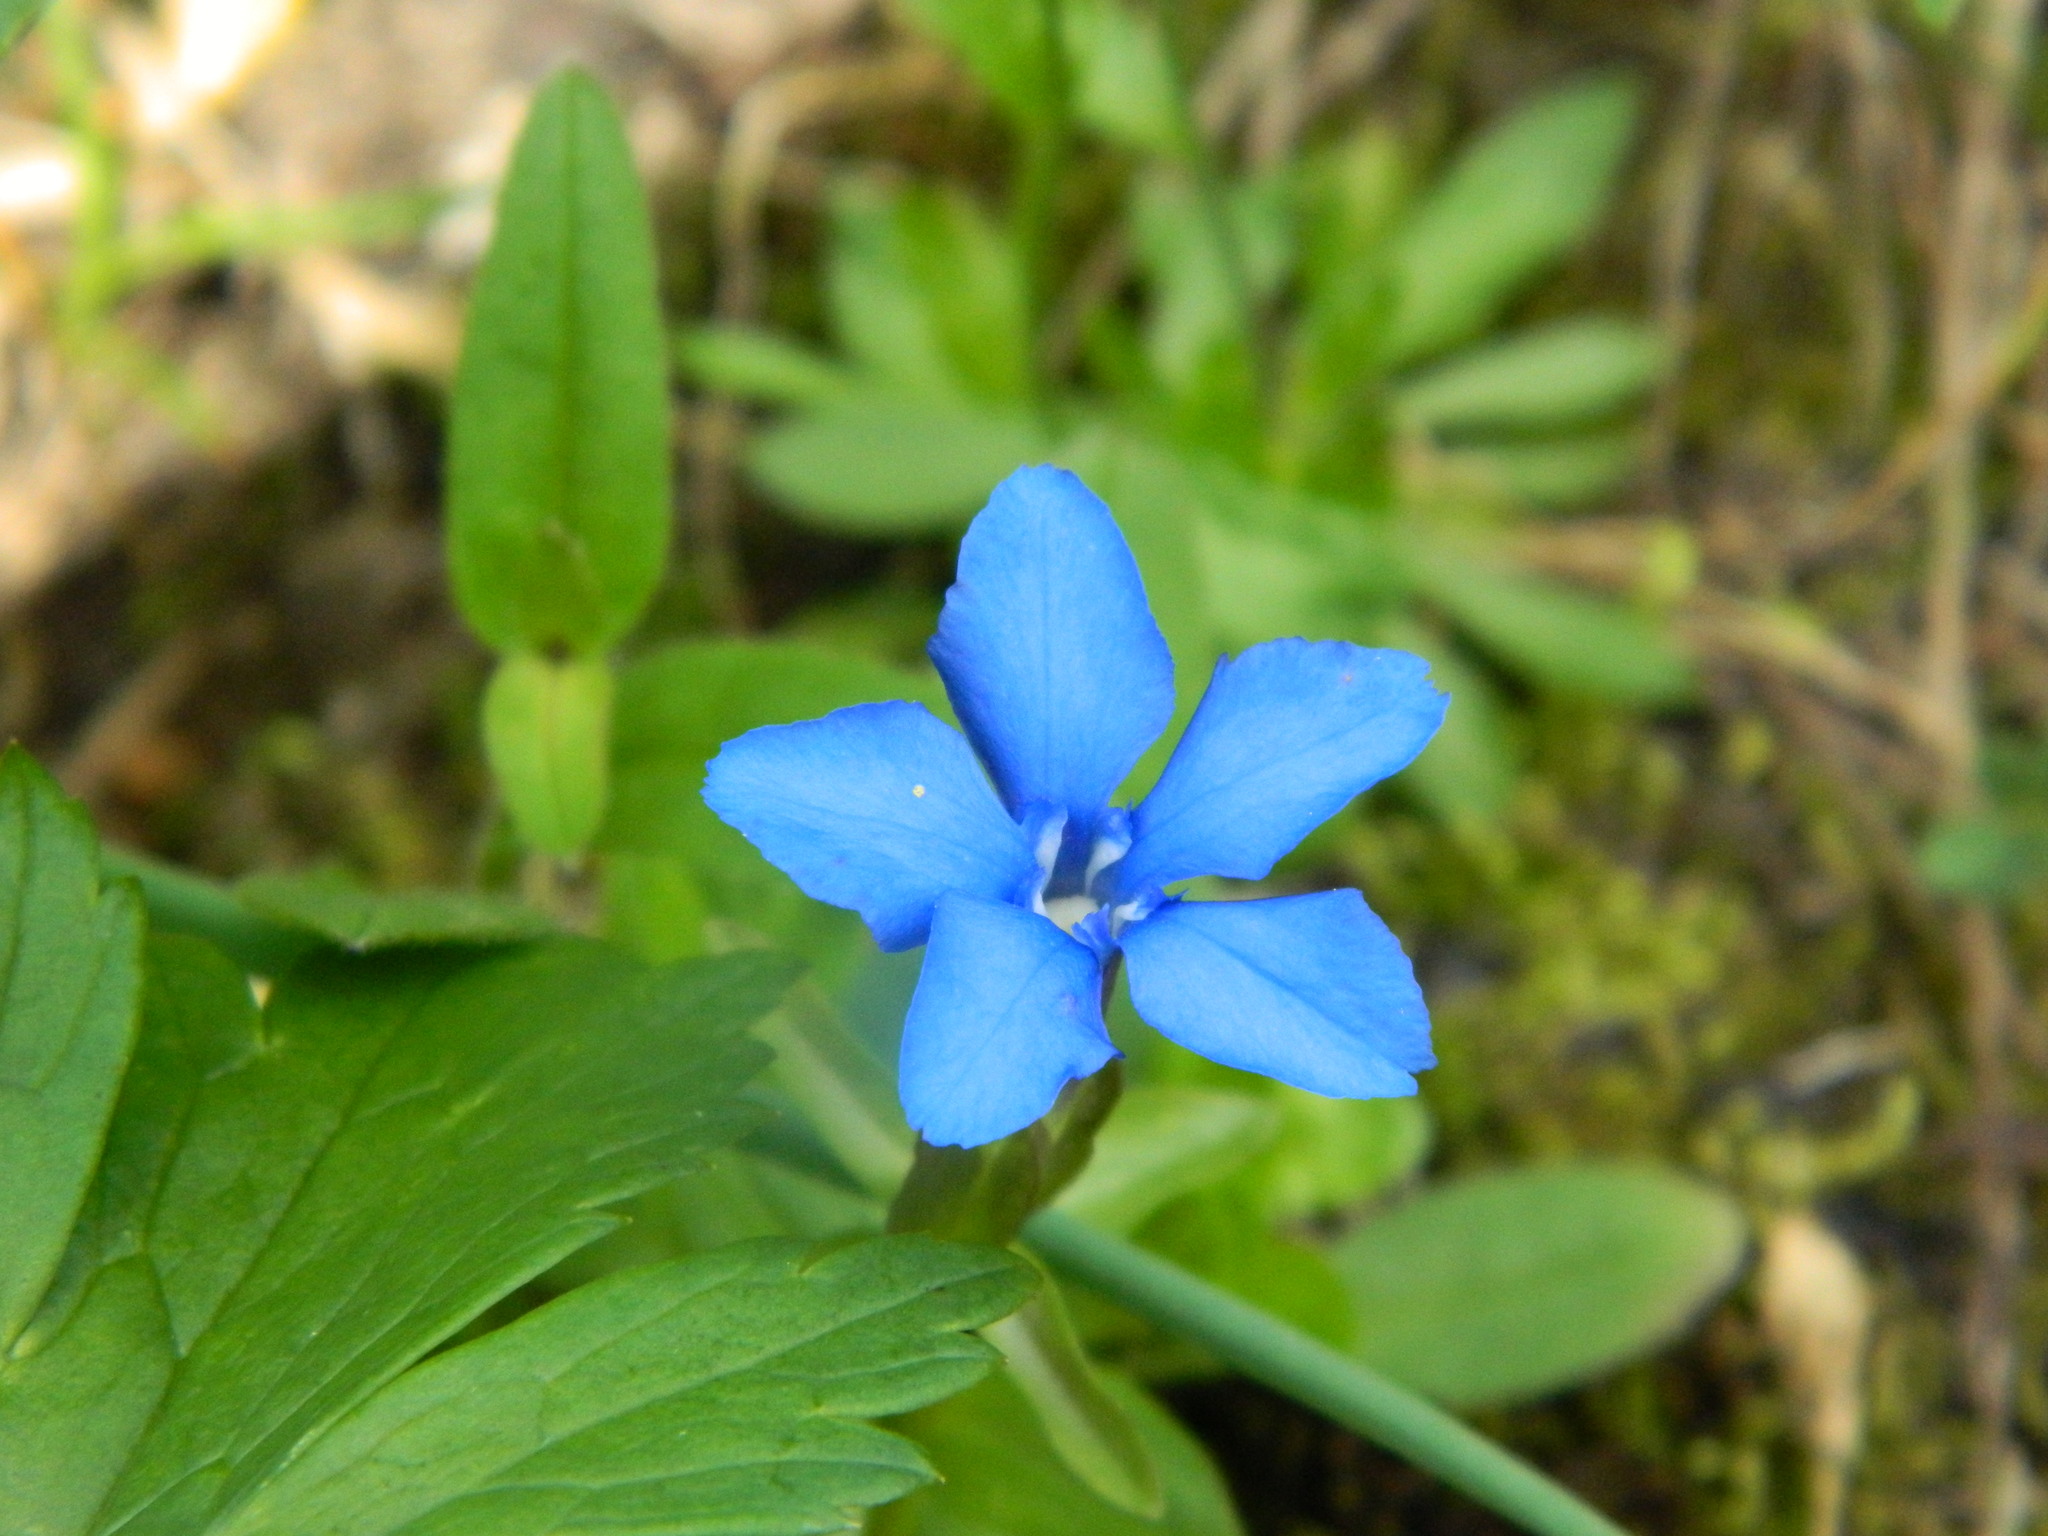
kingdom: Plantae
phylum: Tracheophyta
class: Magnoliopsida
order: Gentianales
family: Gentianaceae
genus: Gentiana
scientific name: Gentiana uniflora
